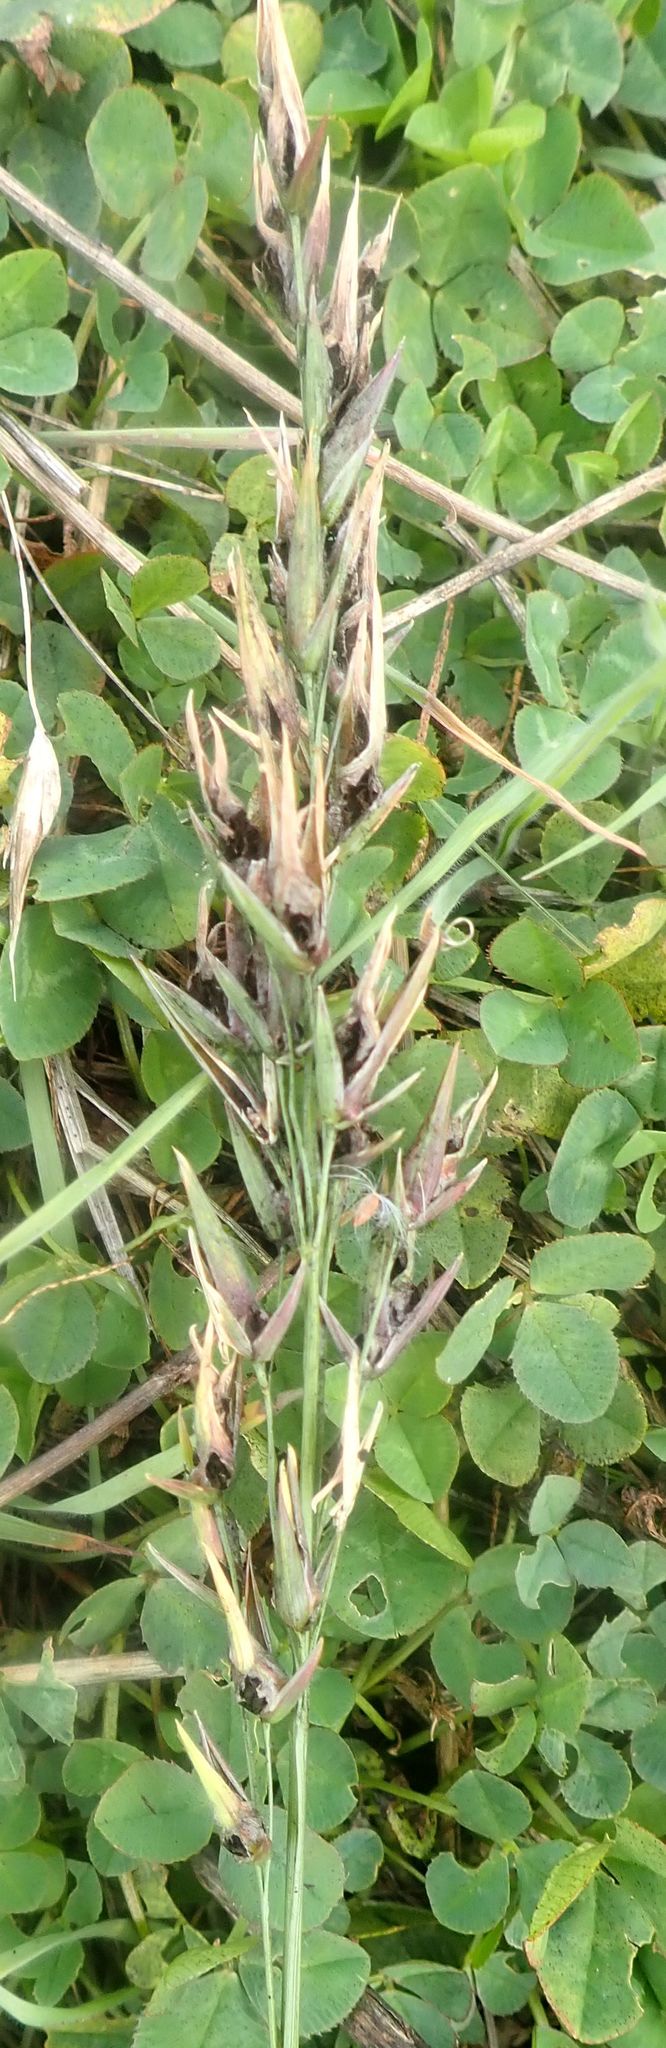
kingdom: Fungi
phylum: Basidiomycota
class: Ustilaginomycetes
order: Ustilaginales
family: Ustilaginaceae
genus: Ustilago
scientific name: Ustilago avenae
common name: Loose smut of oats & oat grass
